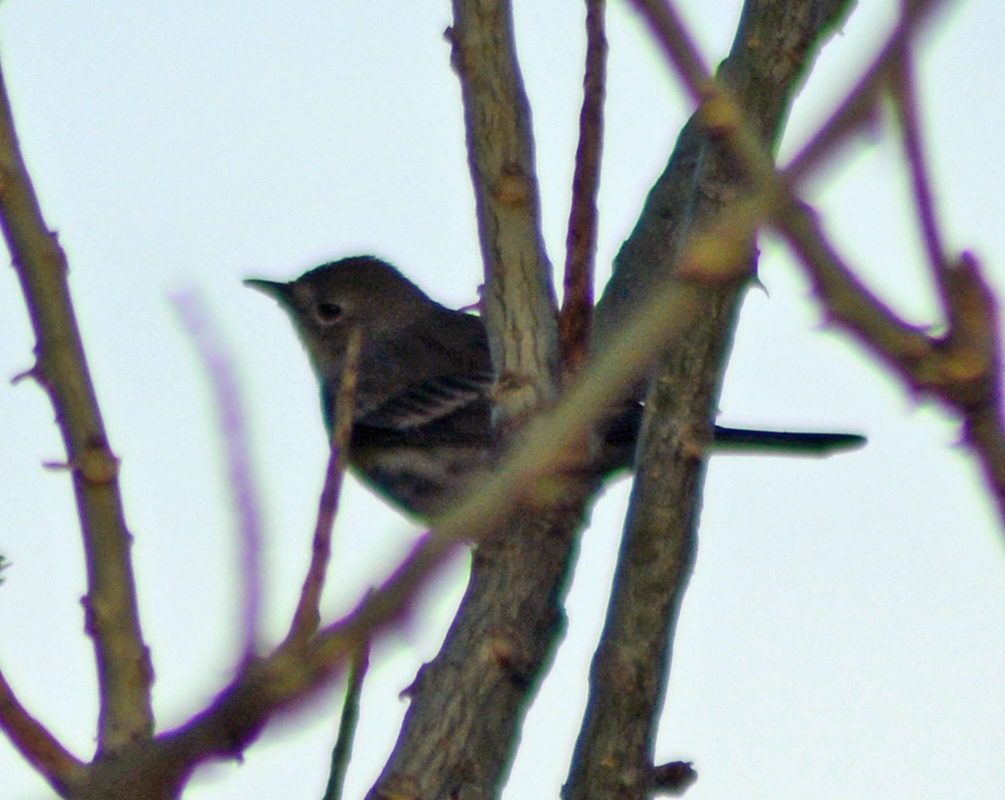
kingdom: Animalia
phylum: Chordata
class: Aves
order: Passeriformes
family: Parulidae
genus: Setophaga
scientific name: Setophaga coronata
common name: Myrtle warbler
